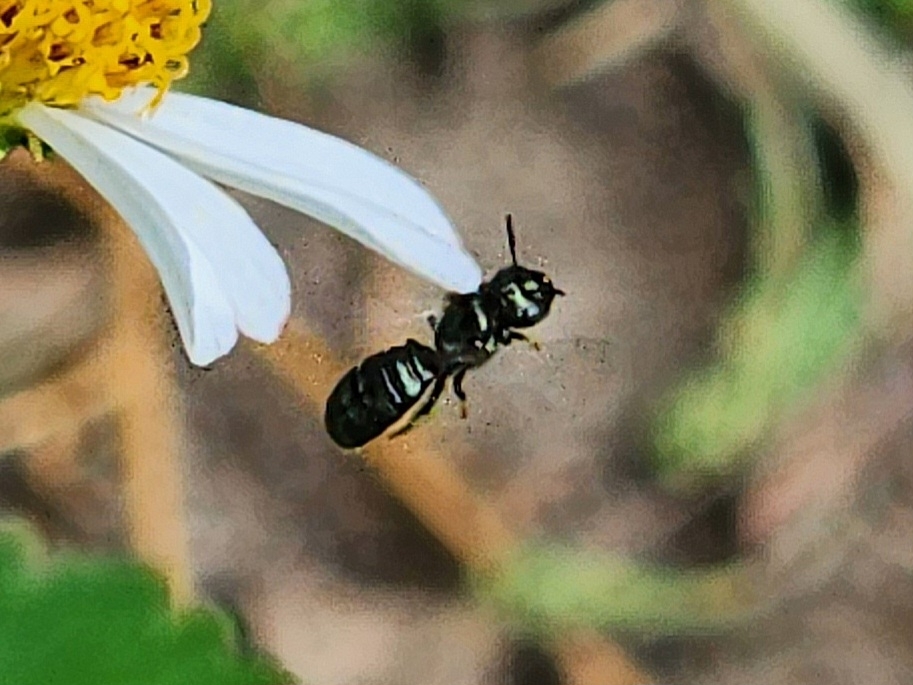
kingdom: Animalia
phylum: Arthropoda
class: Insecta
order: Hymenoptera
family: Apidae
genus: Zadontomerus
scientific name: Zadontomerus
